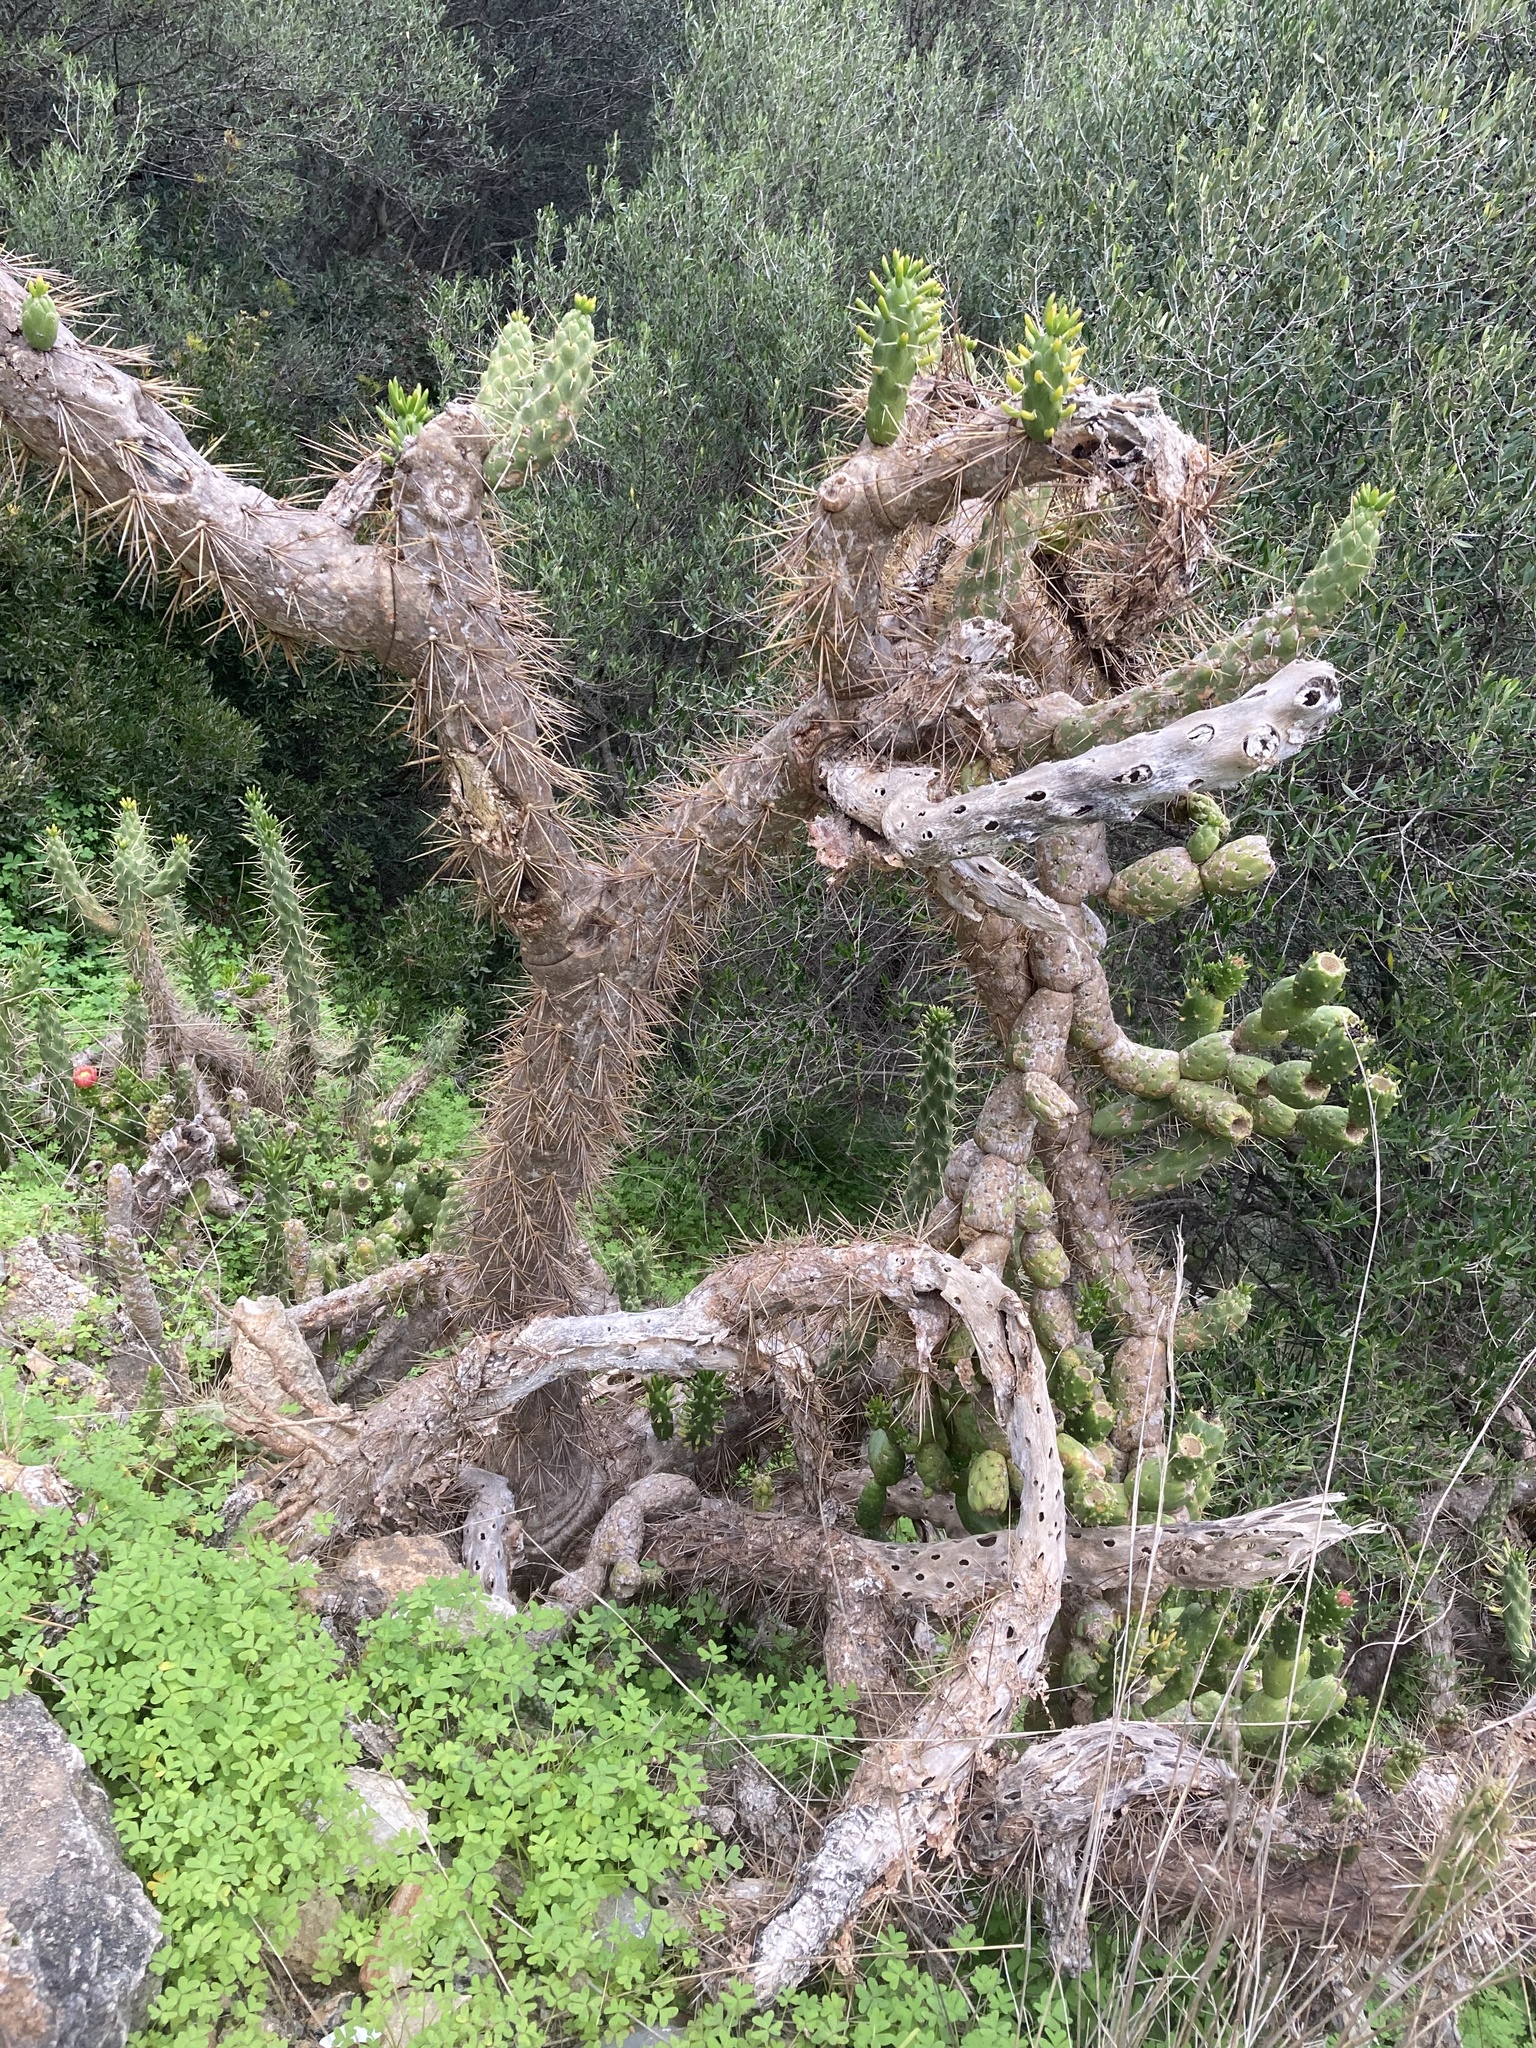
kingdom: Plantae
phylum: Tracheophyta
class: Magnoliopsida
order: Caryophyllales
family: Cactaceae
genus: Austrocylindropuntia
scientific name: Austrocylindropuntia subulata
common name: Eve's needle cactus
